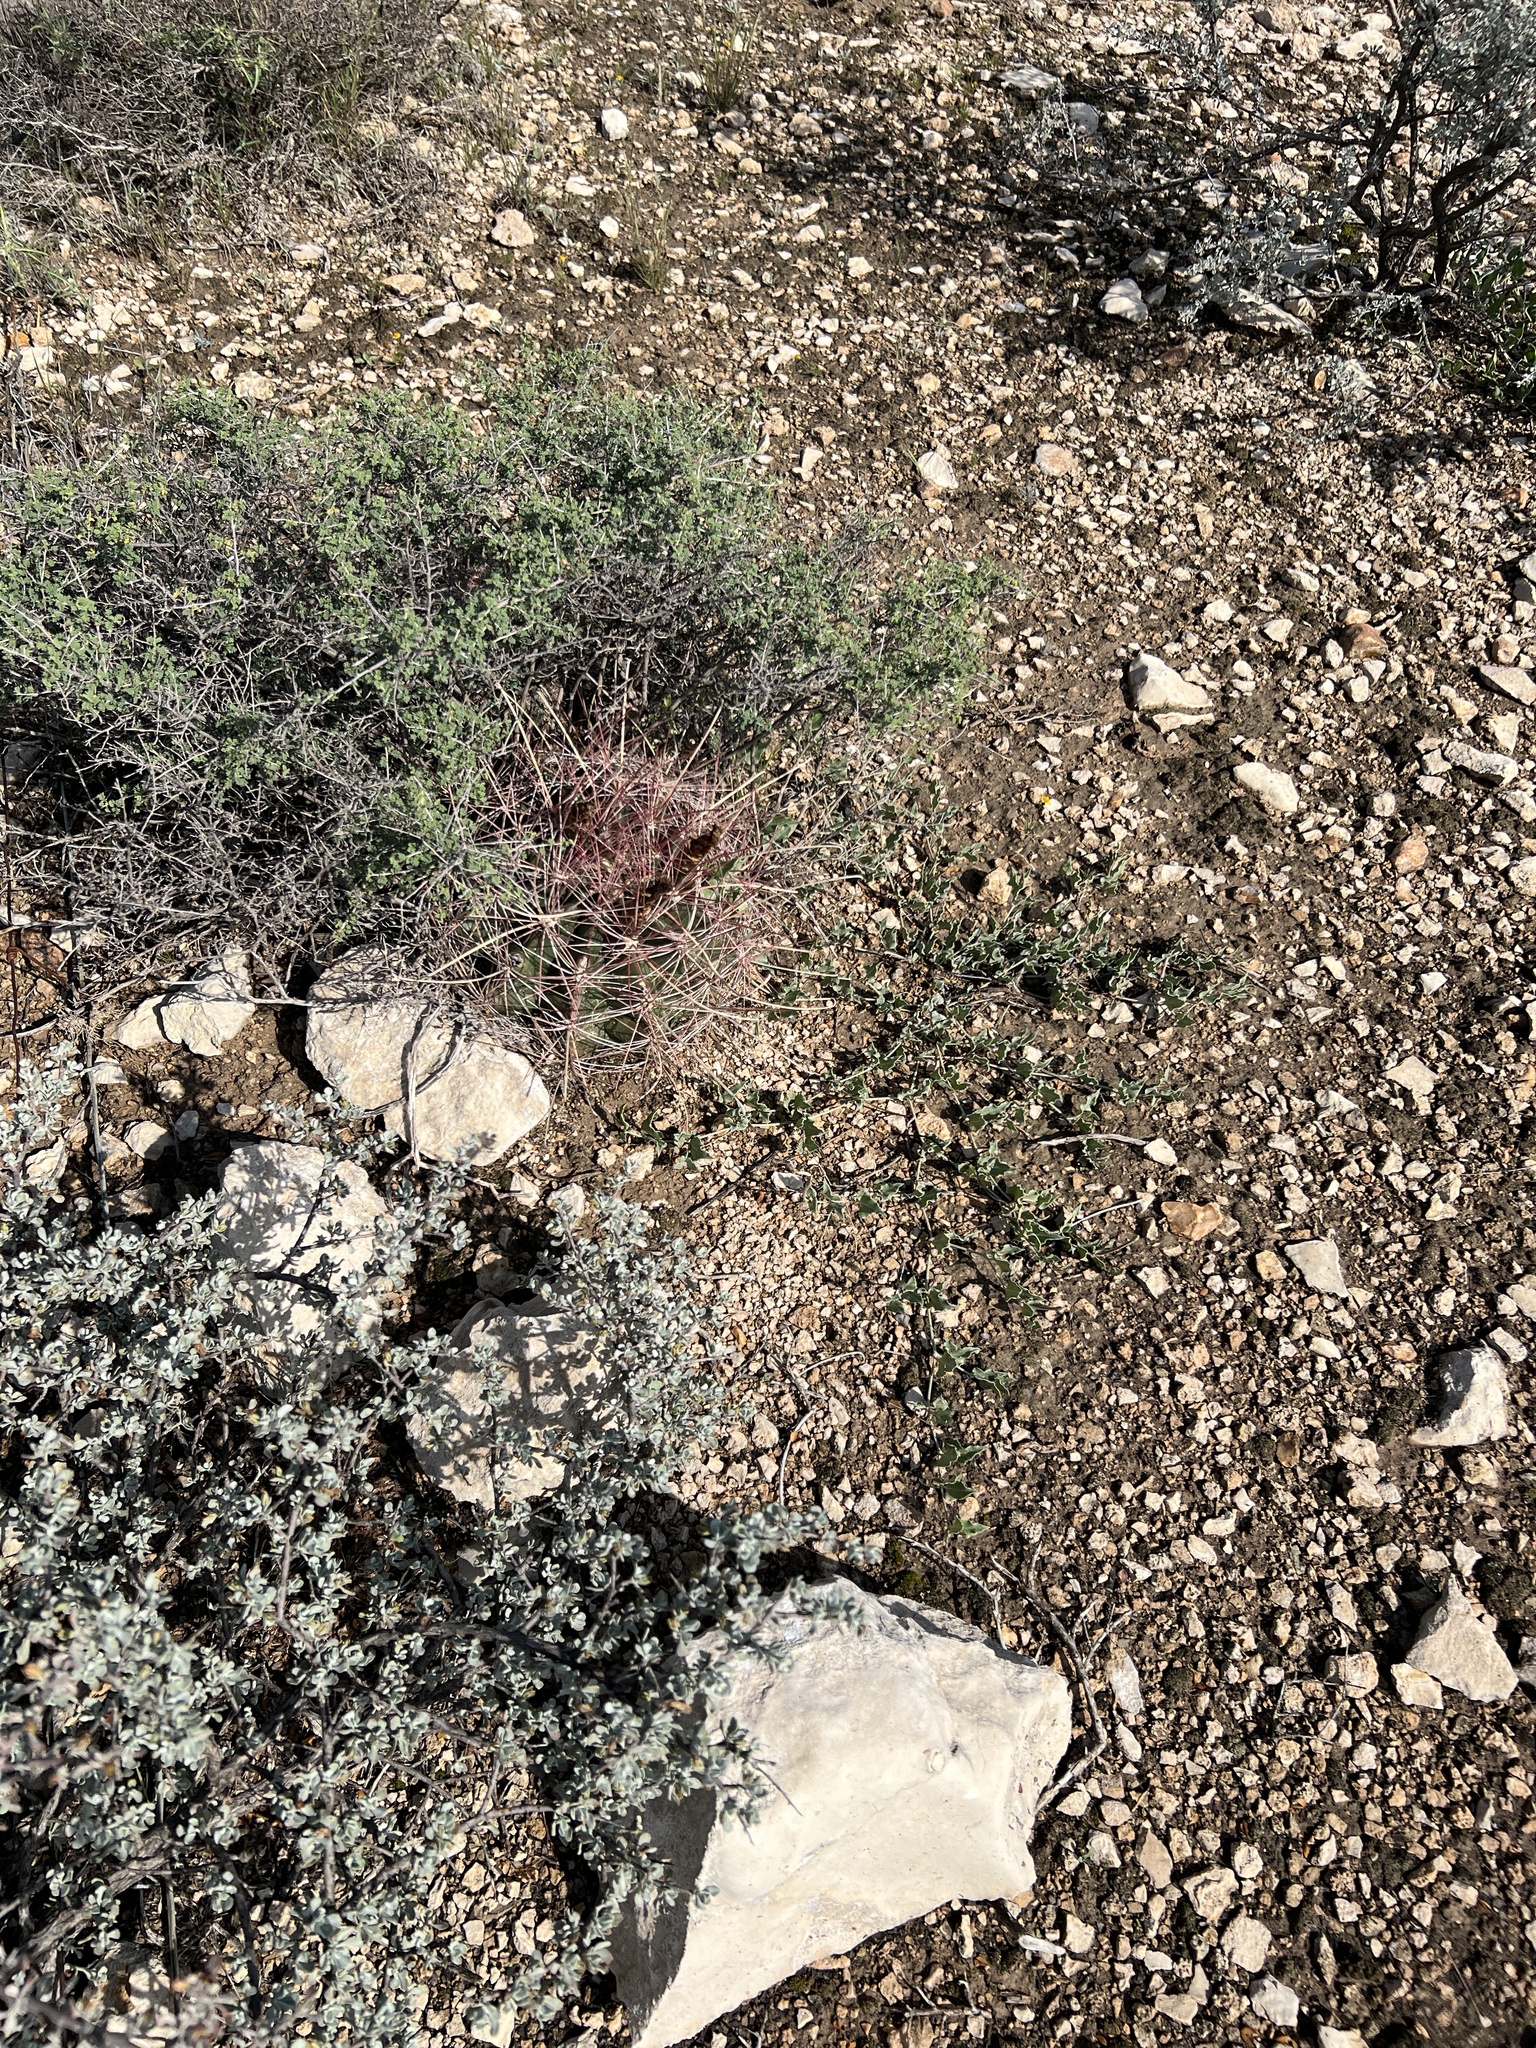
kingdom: Plantae
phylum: Tracheophyta
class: Magnoliopsida
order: Caryophyllales
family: Cactaceae
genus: Bisnaga
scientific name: Bisnaga hamatacantha
